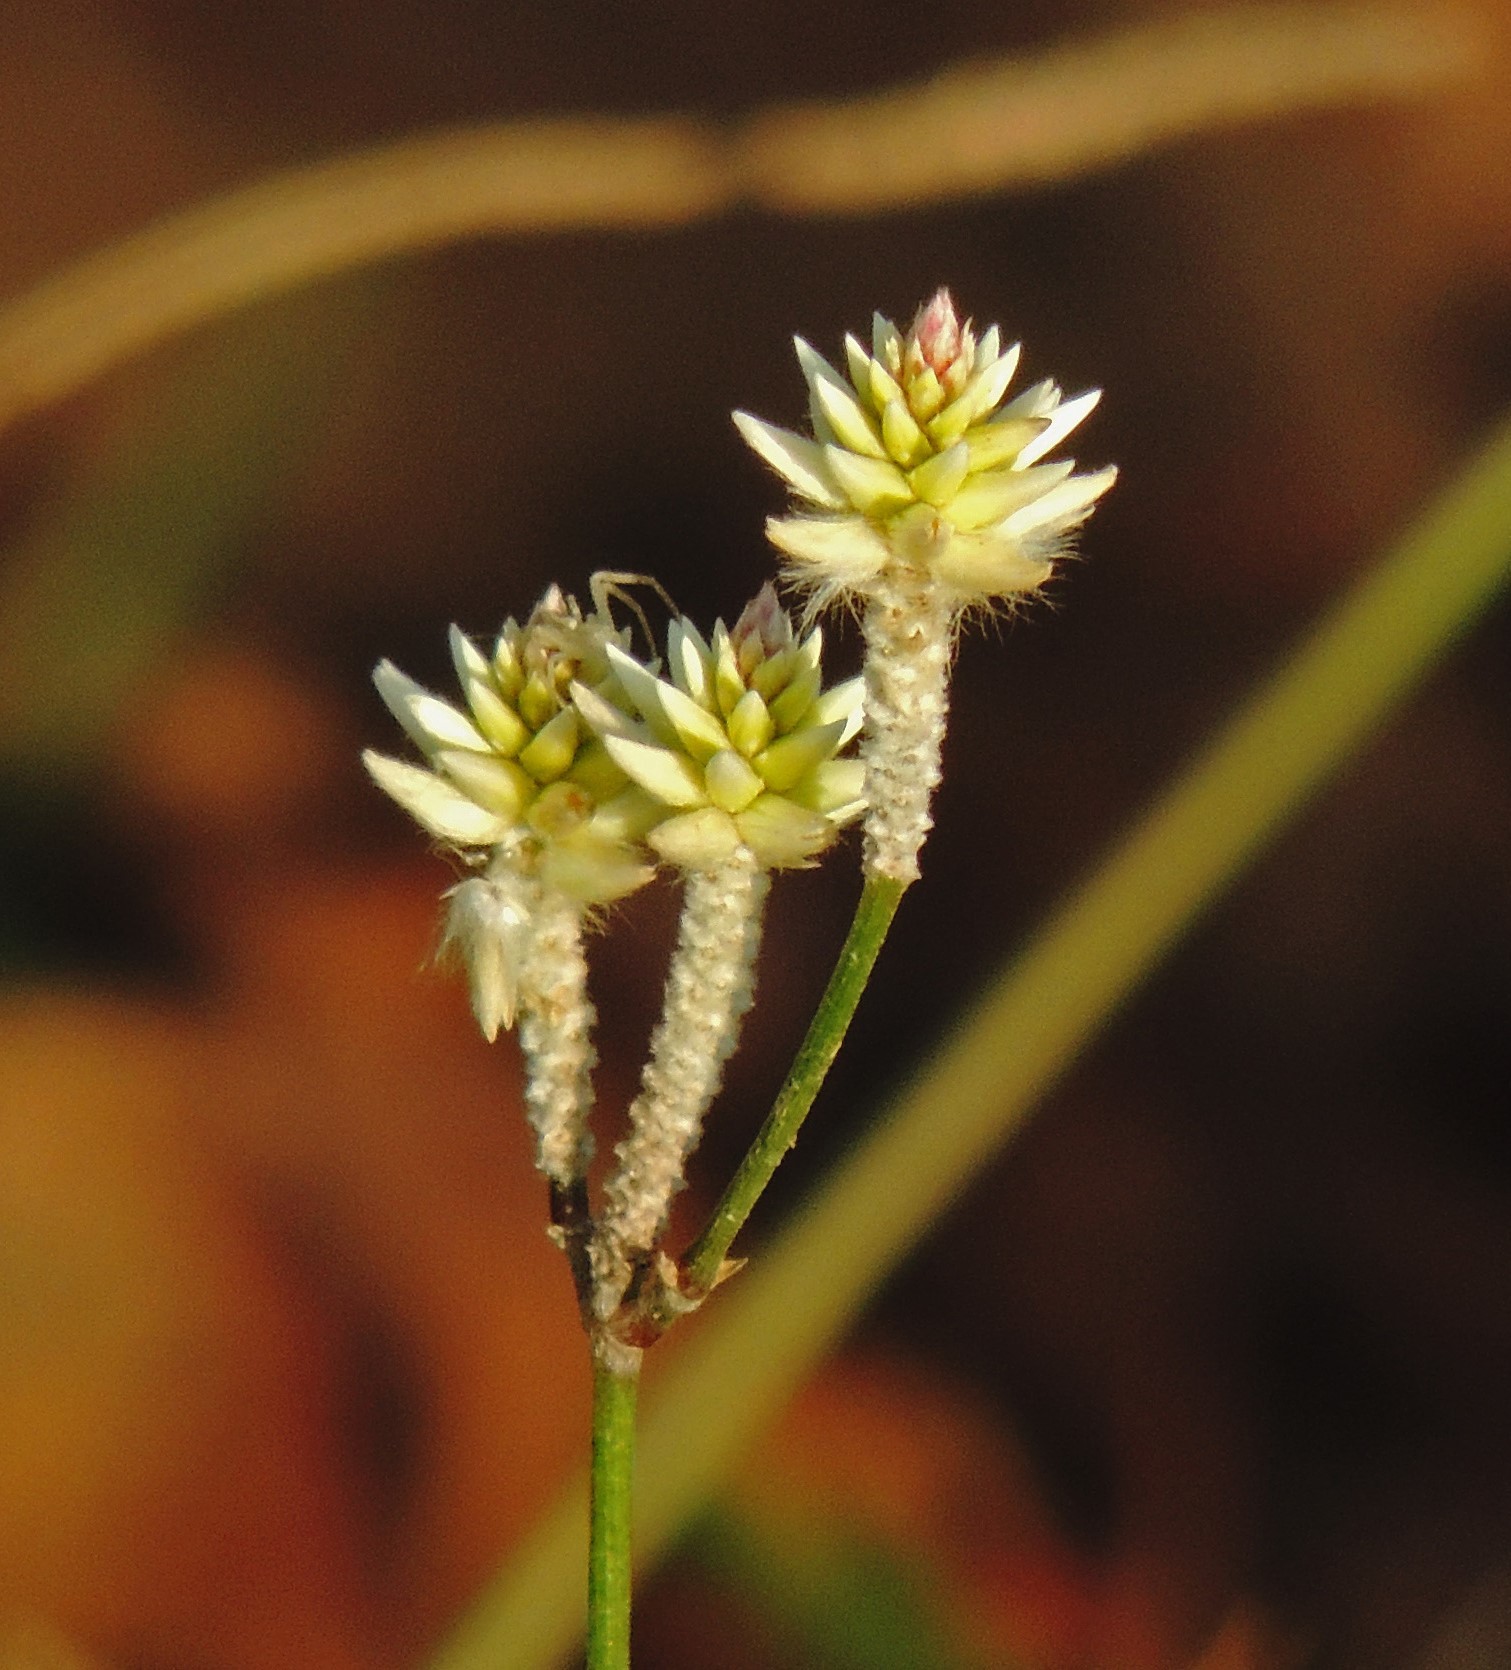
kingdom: Plantae
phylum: Tracheophyta
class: Magnoliopsida
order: Caryophyllales
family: Amaranthaceae
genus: Pfaffia
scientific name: Pfaffia tuberosa
